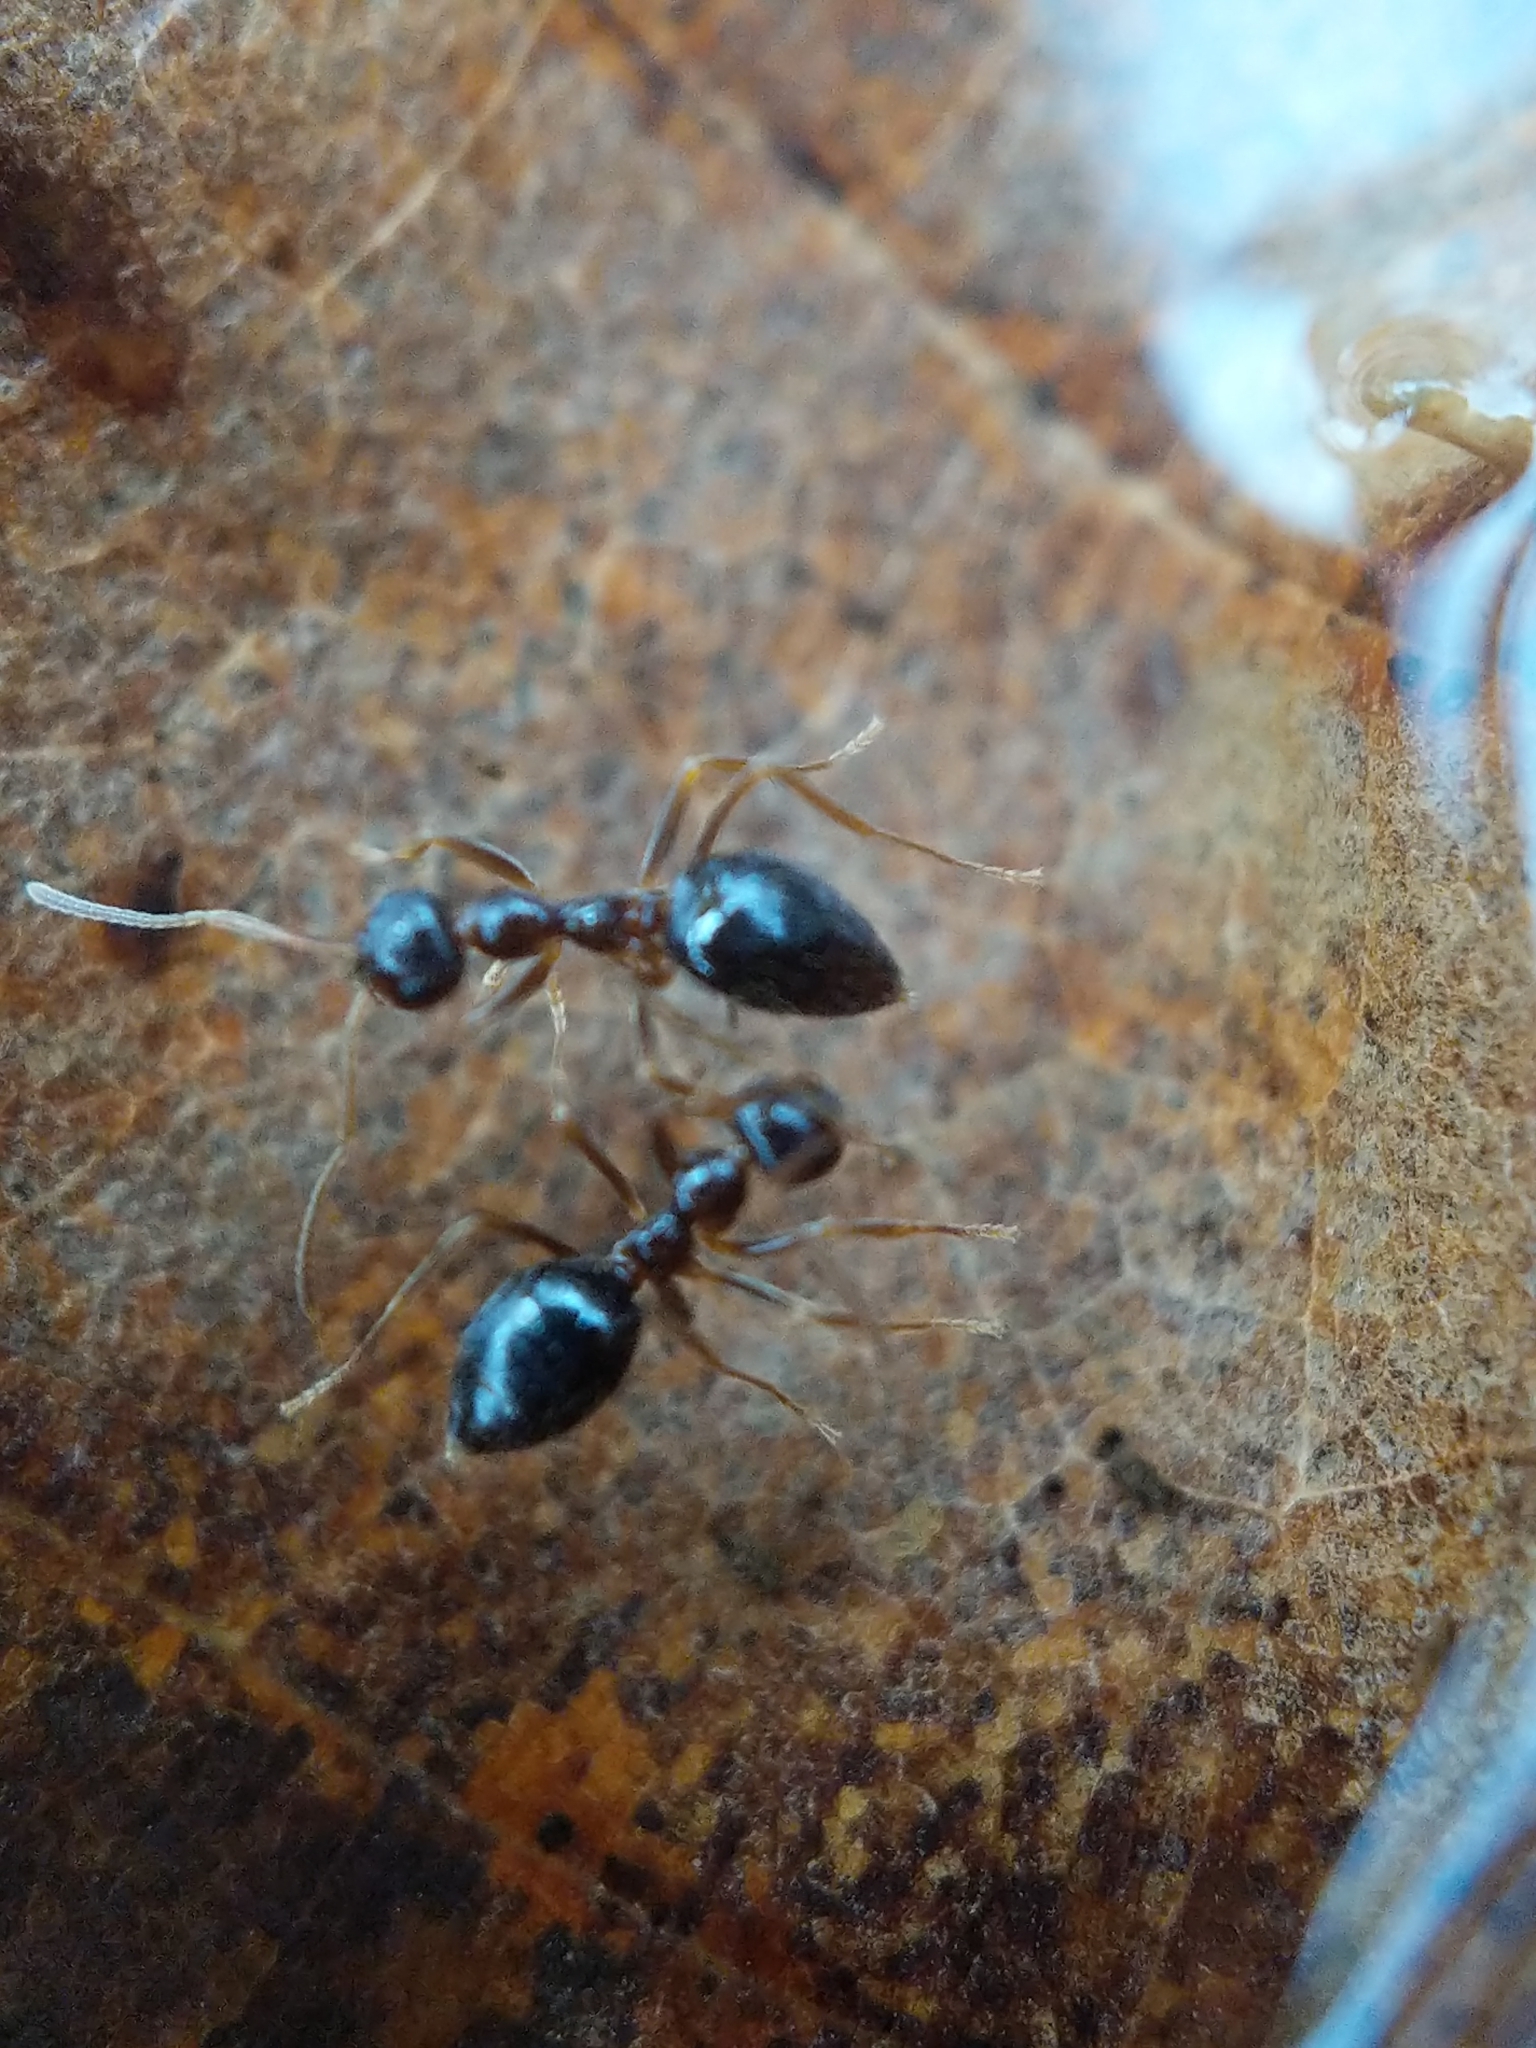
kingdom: Animalia
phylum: Arthropoda
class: Insecta
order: Hymenoptera
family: Formicidae
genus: Prenolepis
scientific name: Prenolepis imparis
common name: Small honey ant
